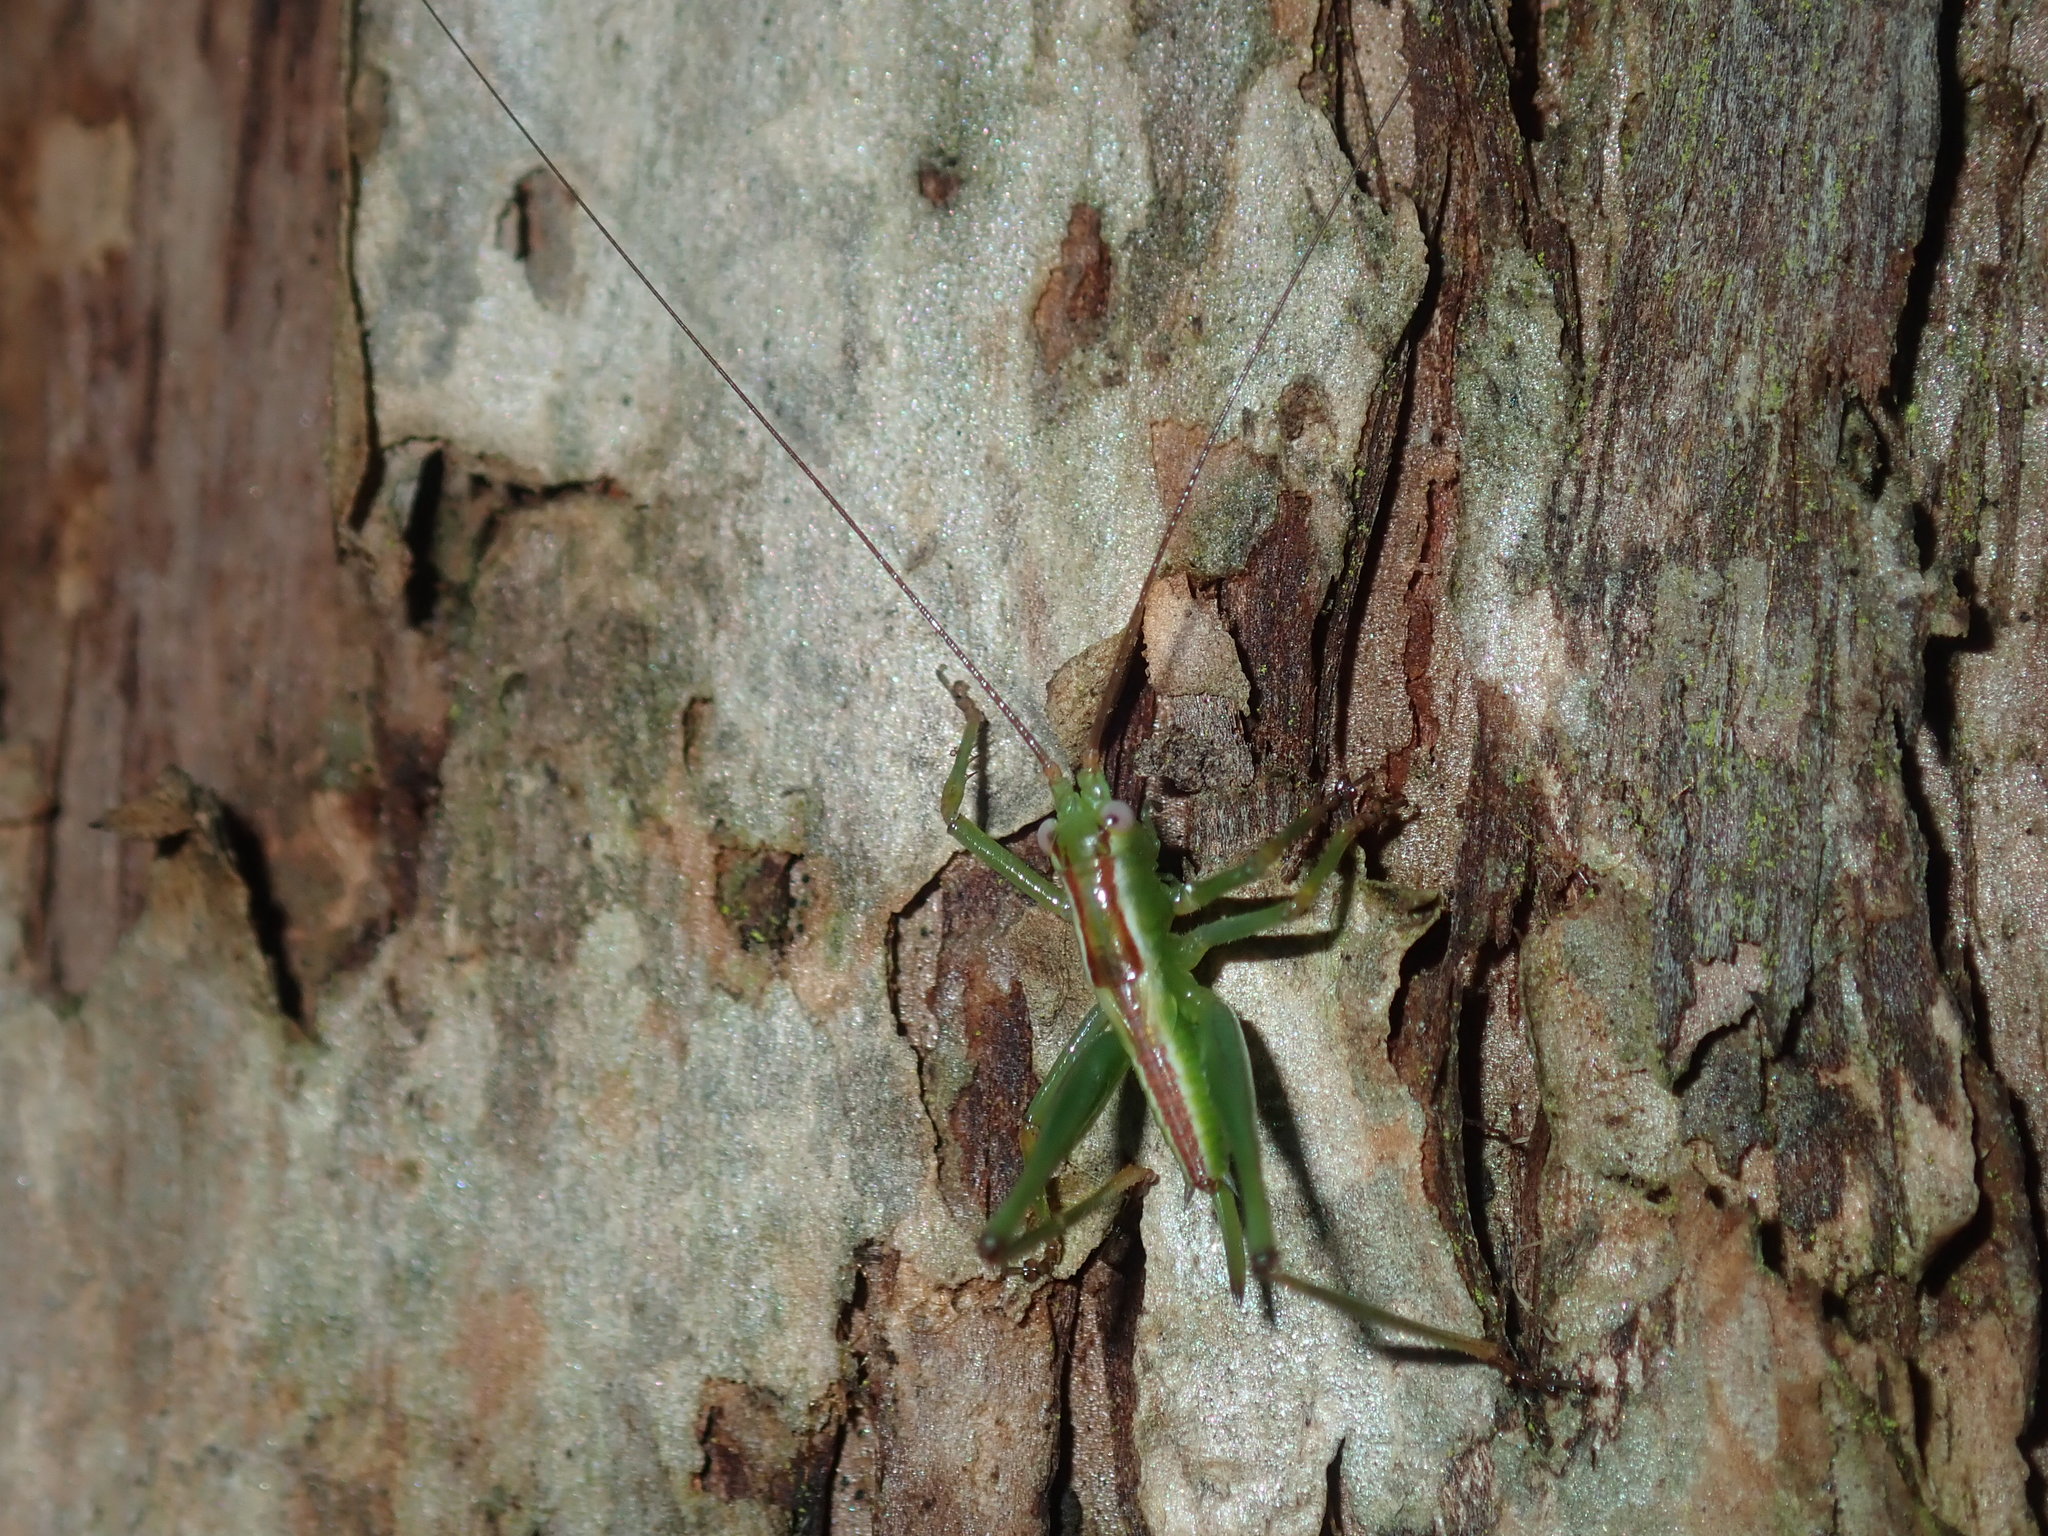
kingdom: Animalia
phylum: Arthropoda
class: Insecta
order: Orthoptera
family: Tettigoniidae
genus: Conocephalomima
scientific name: Conocephalomima barameda
